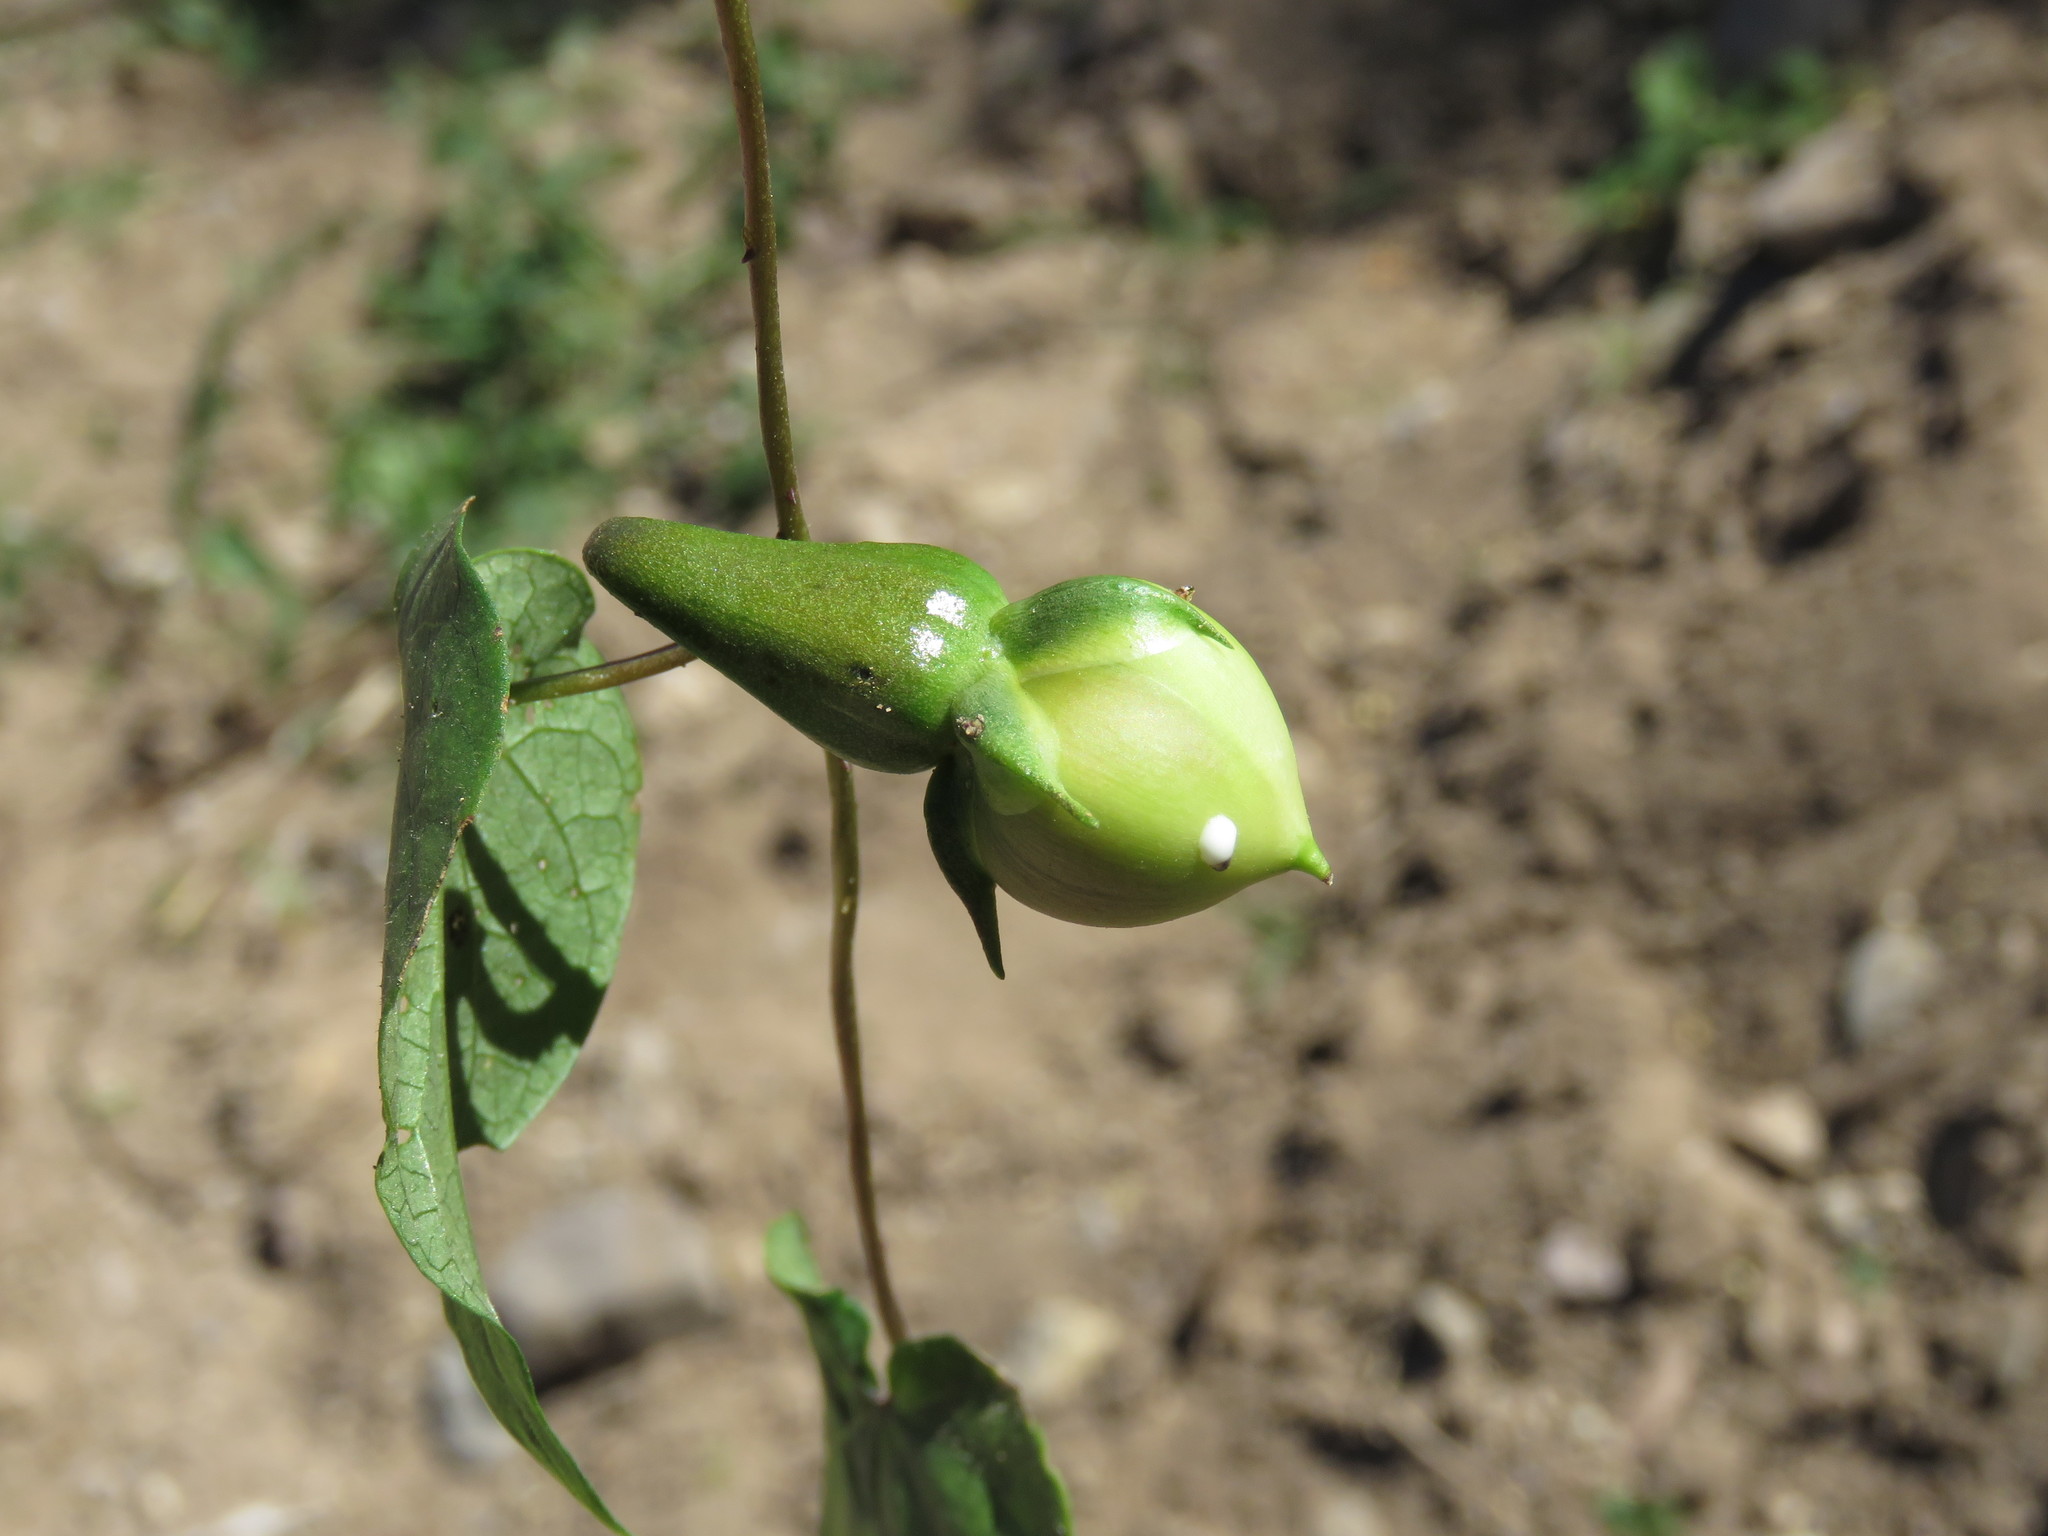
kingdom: Plantae
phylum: Tracheophyta
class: Magnoliopsida
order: Solanales
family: Convolvulaceae
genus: Ipomoea
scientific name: Ipomoea muricata
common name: Lilac-bell
